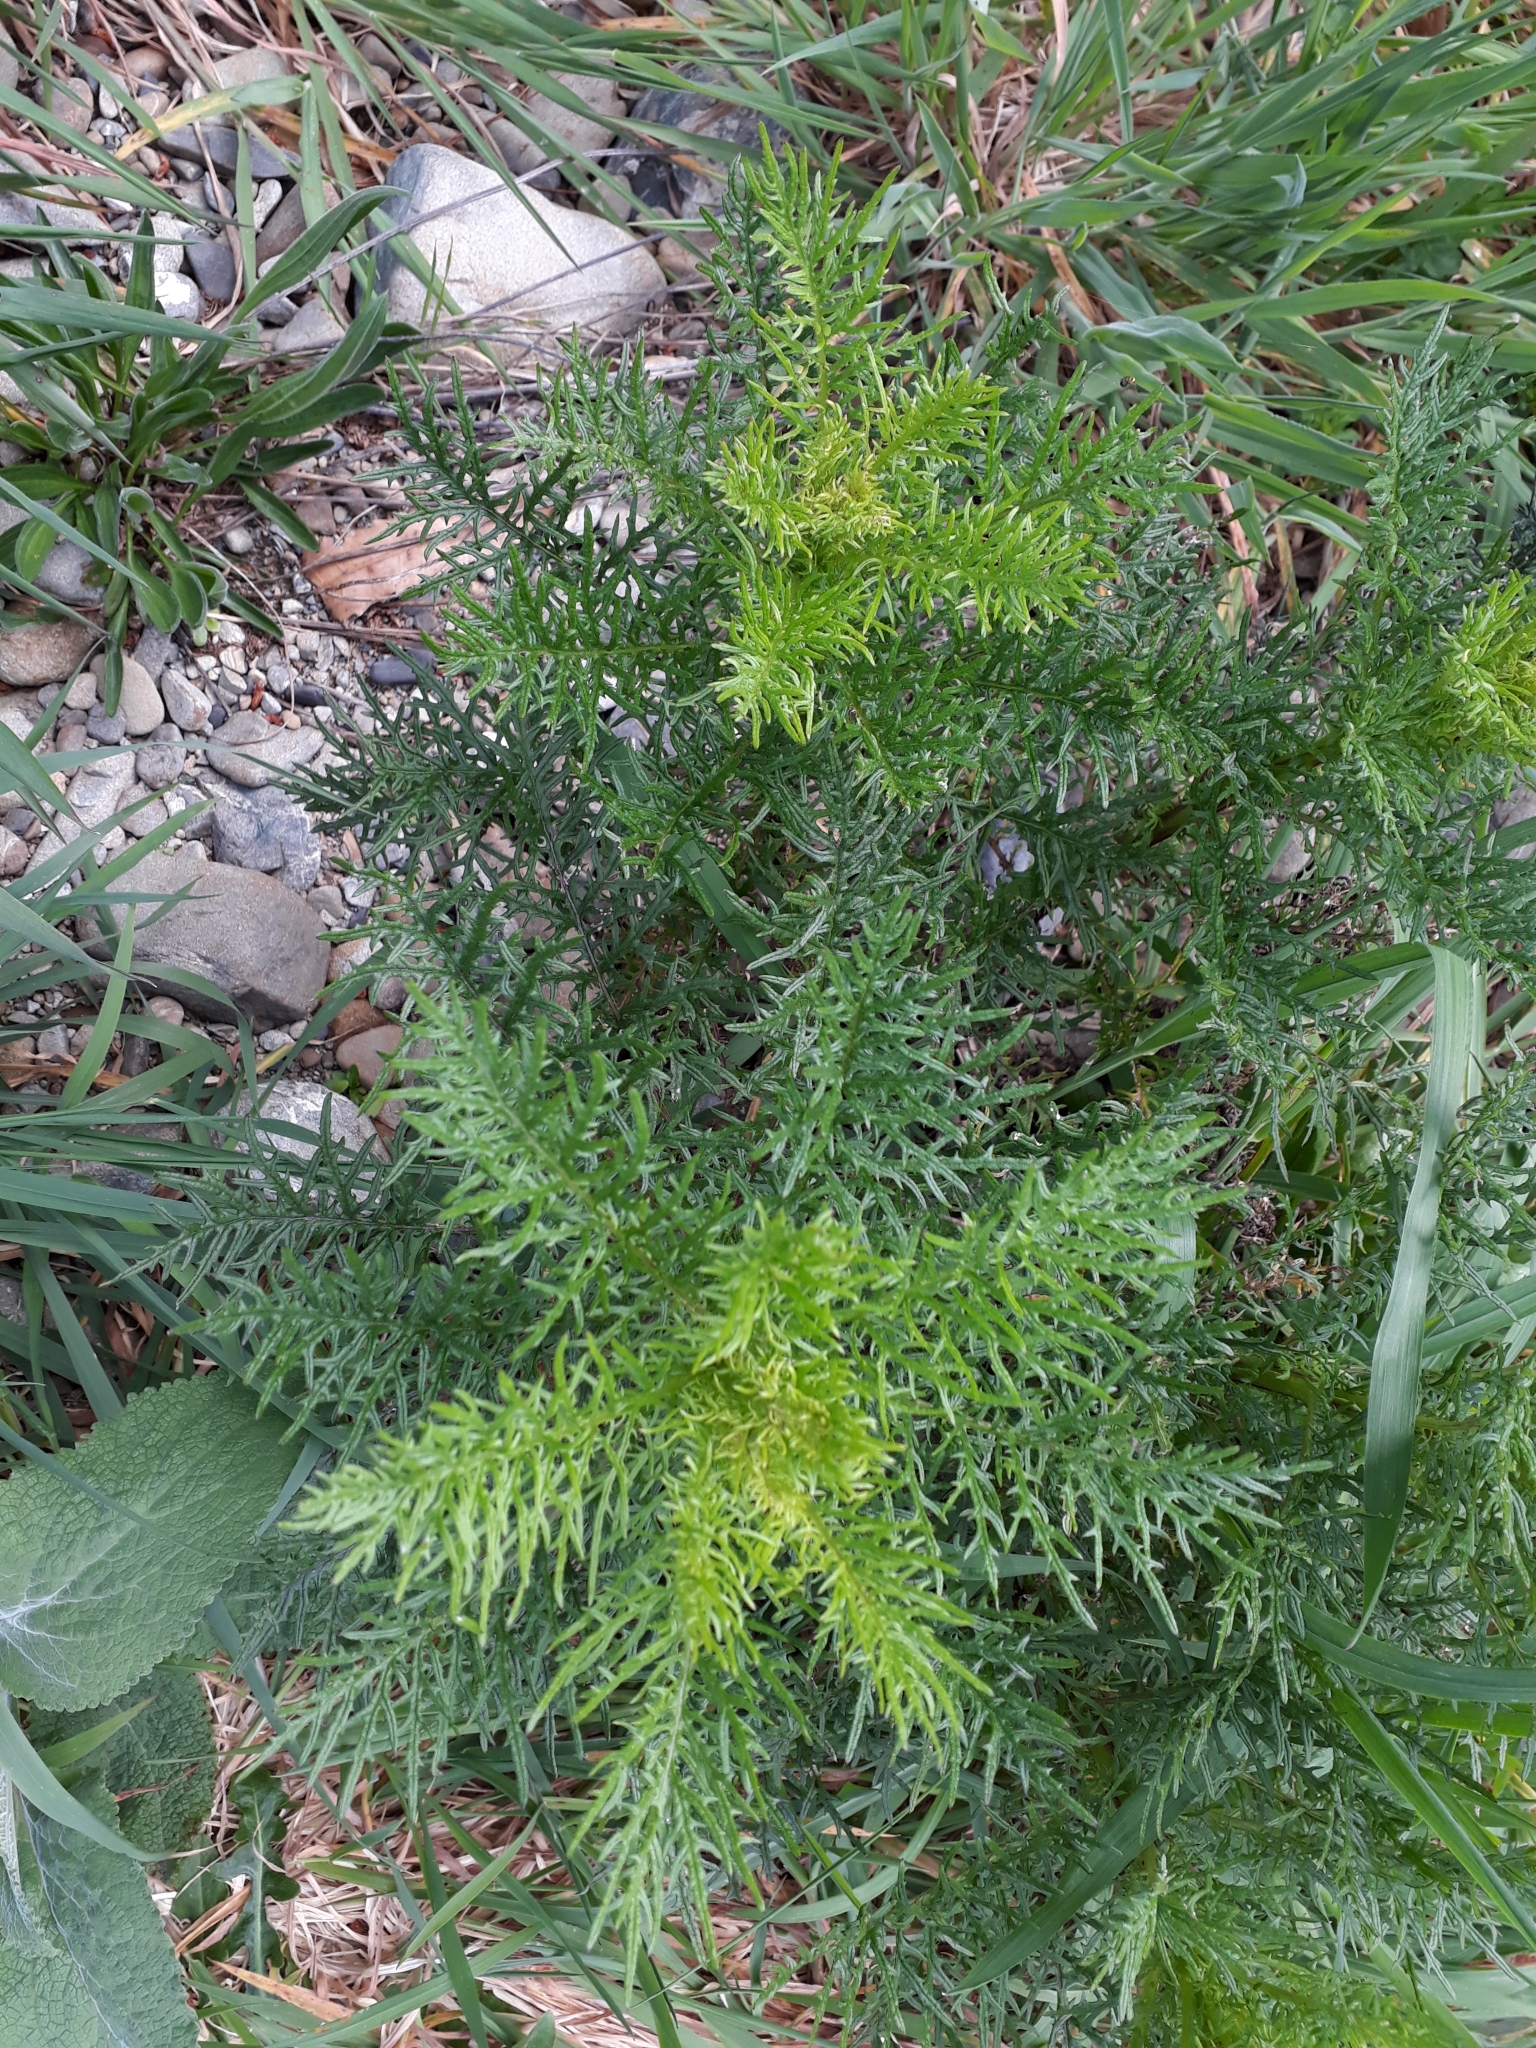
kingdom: Plantae
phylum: Tracheophyta
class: Magnoliopsida
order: Asterales
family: Asteraceae
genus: Senecio
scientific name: Senecio bipinnatisectus
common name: Australian fireweed
